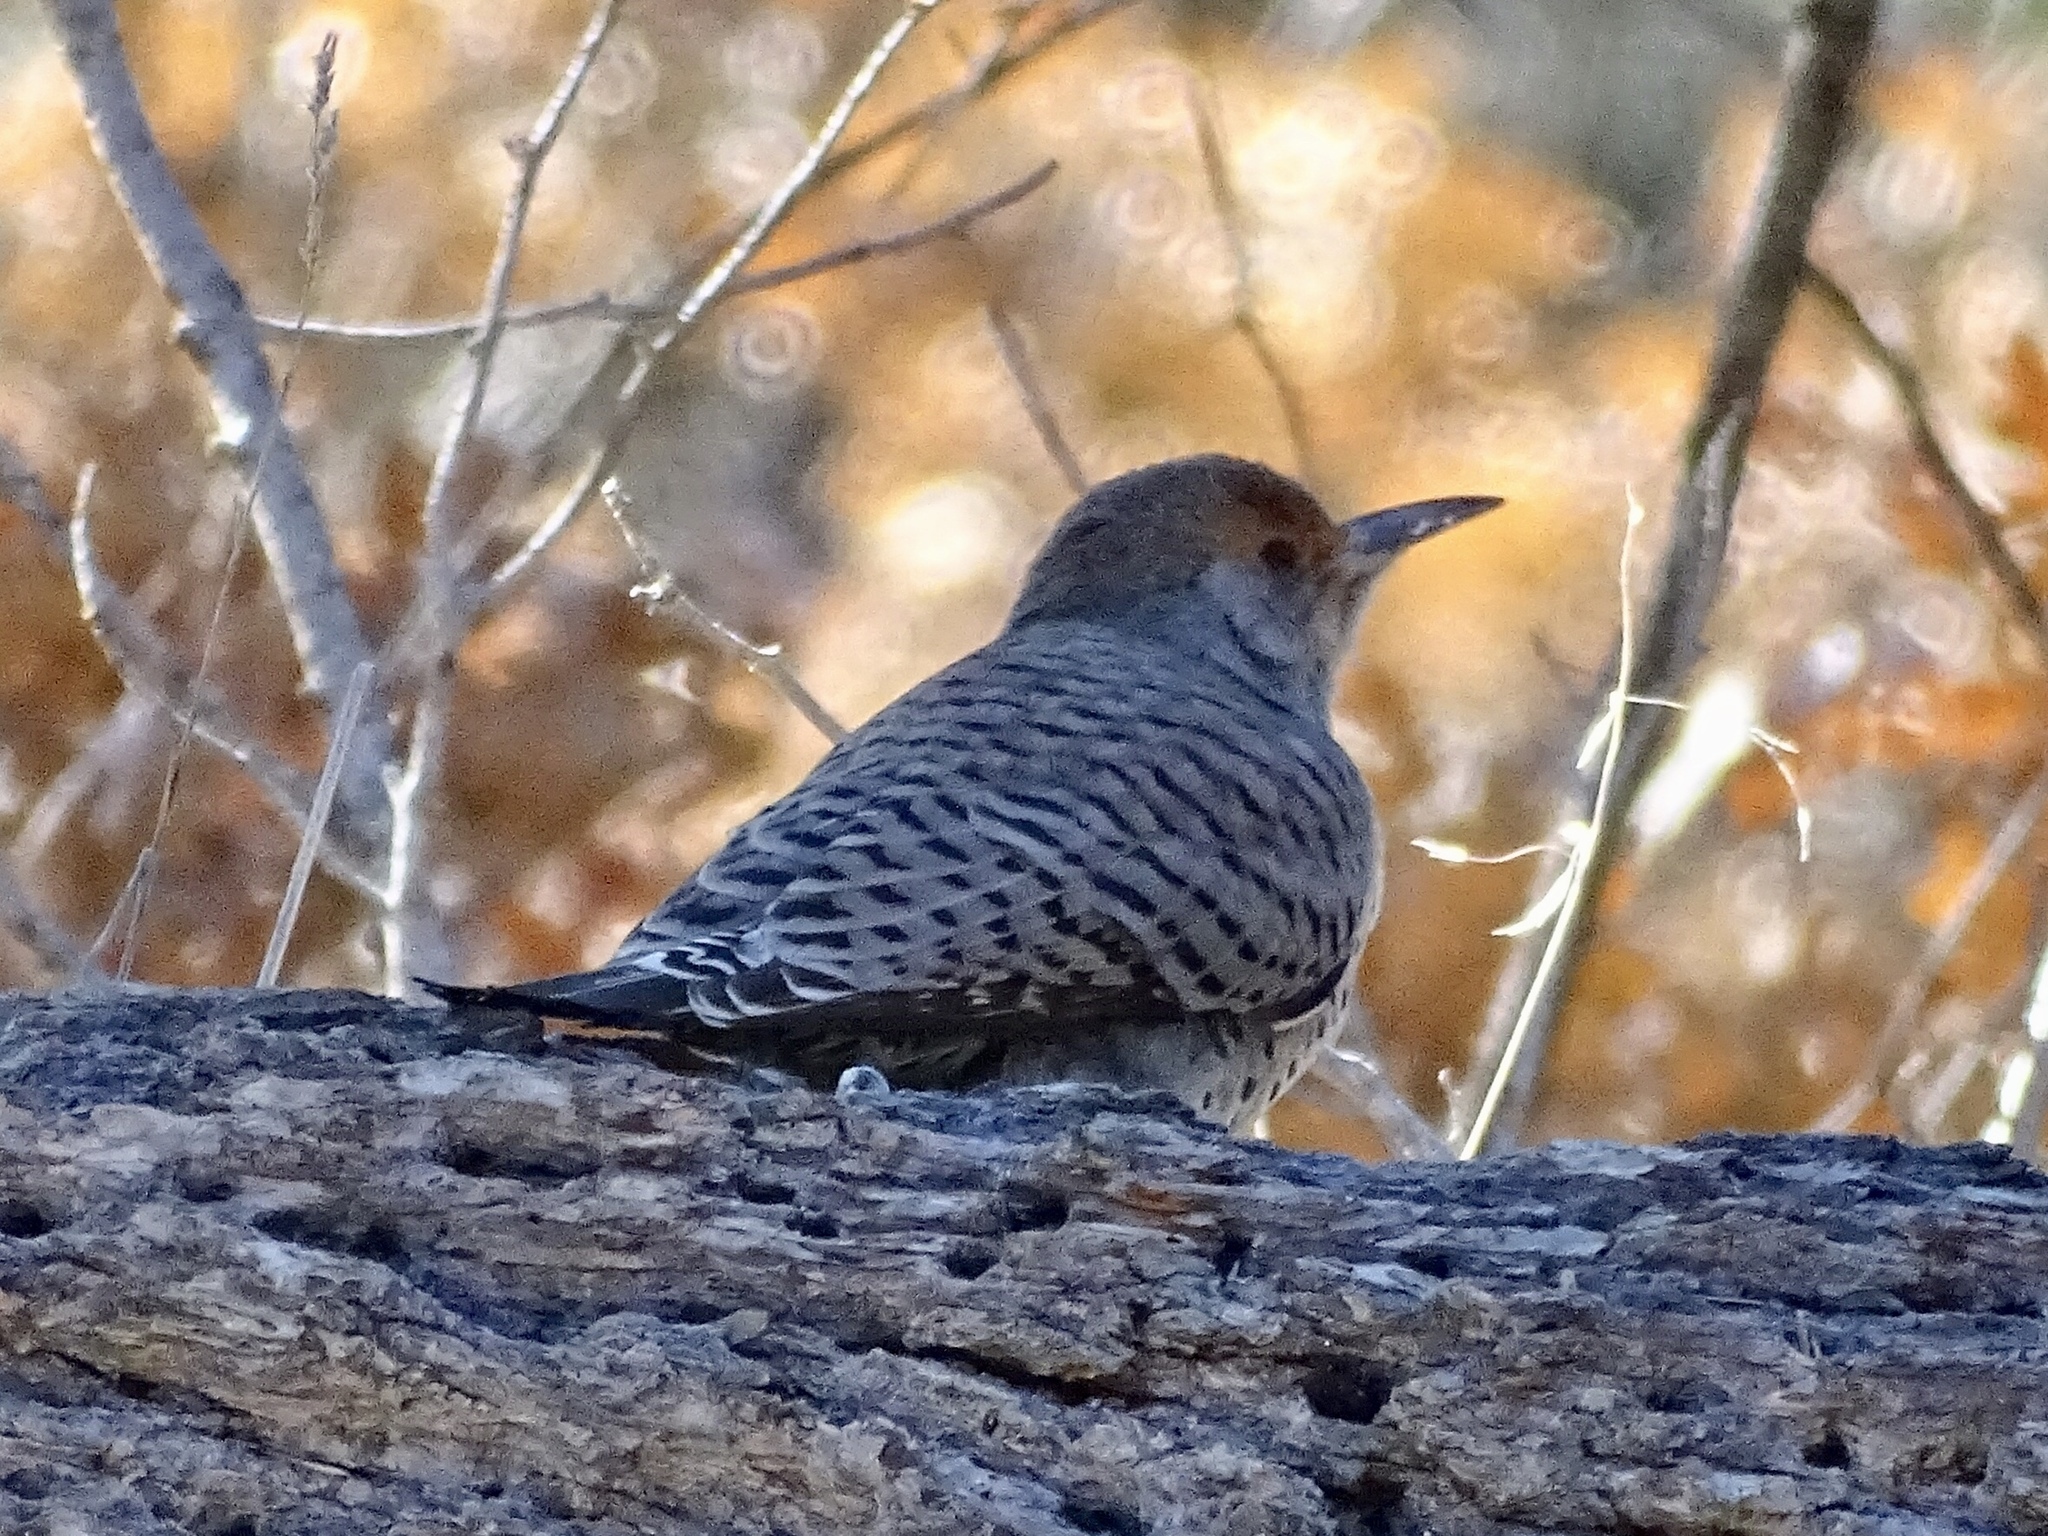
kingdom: Animalia
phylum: Chordata
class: Aves
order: Piciformes
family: Picidae
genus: Colaptes
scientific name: Colaptes auratus
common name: Northern flicker
